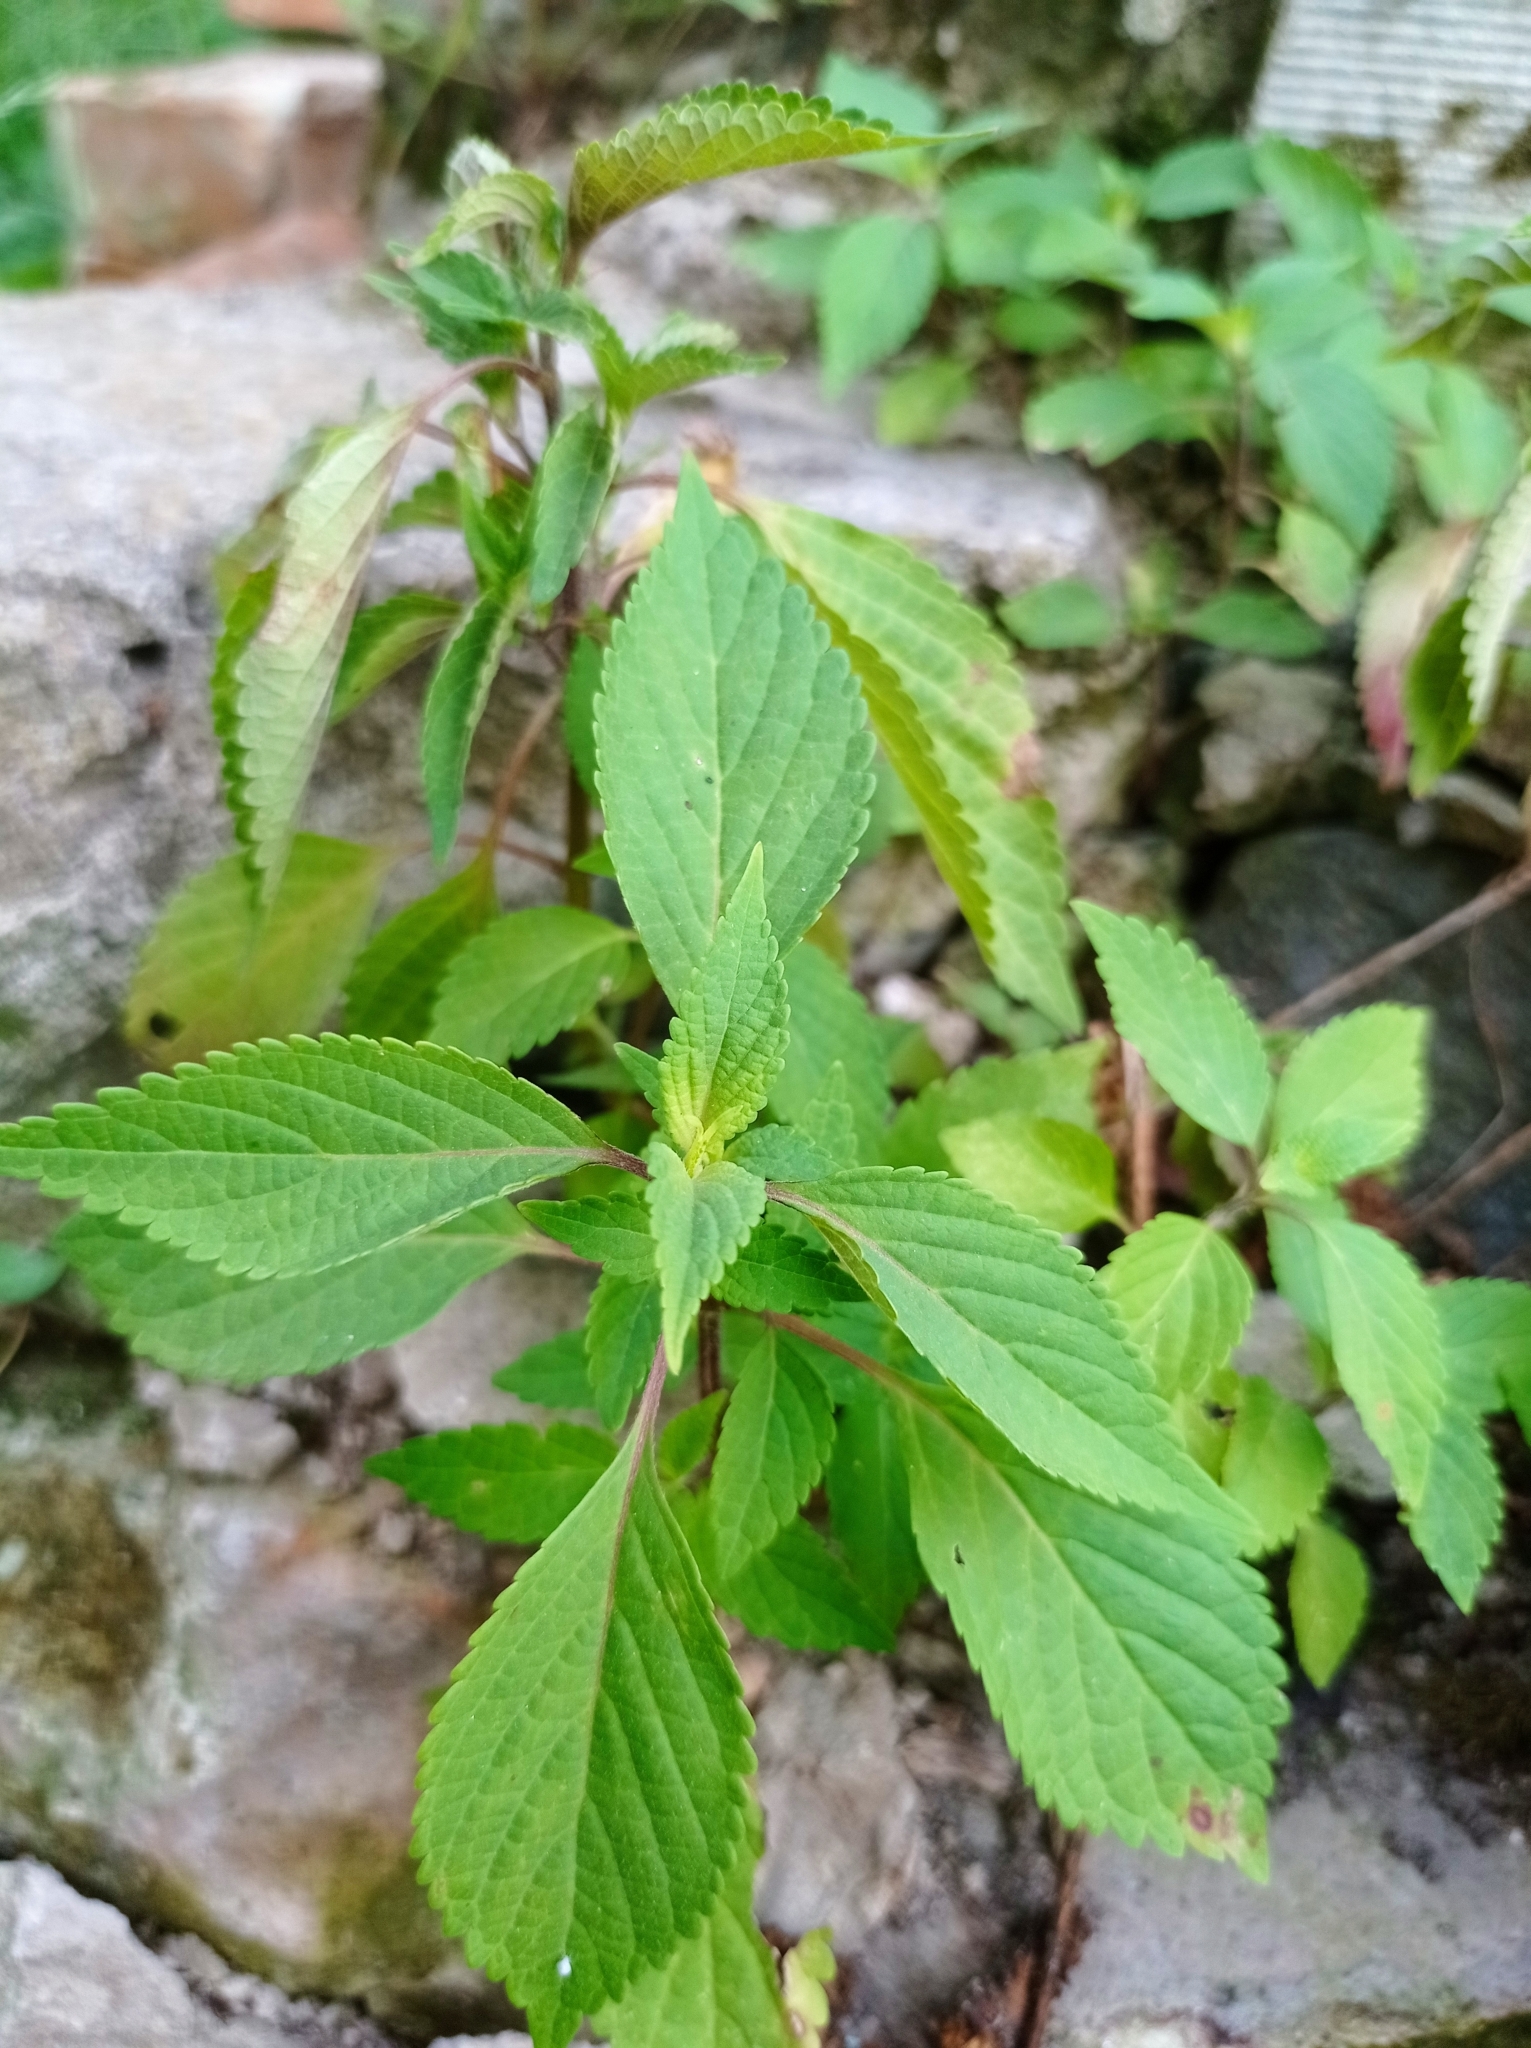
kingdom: Plantae
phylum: Tracheophyta
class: Magnoliopsida
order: Lamiales
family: Lamiaceae
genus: Elsholtzia
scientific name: Elsholtzia ciliata
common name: Ciliate elsholtzia
